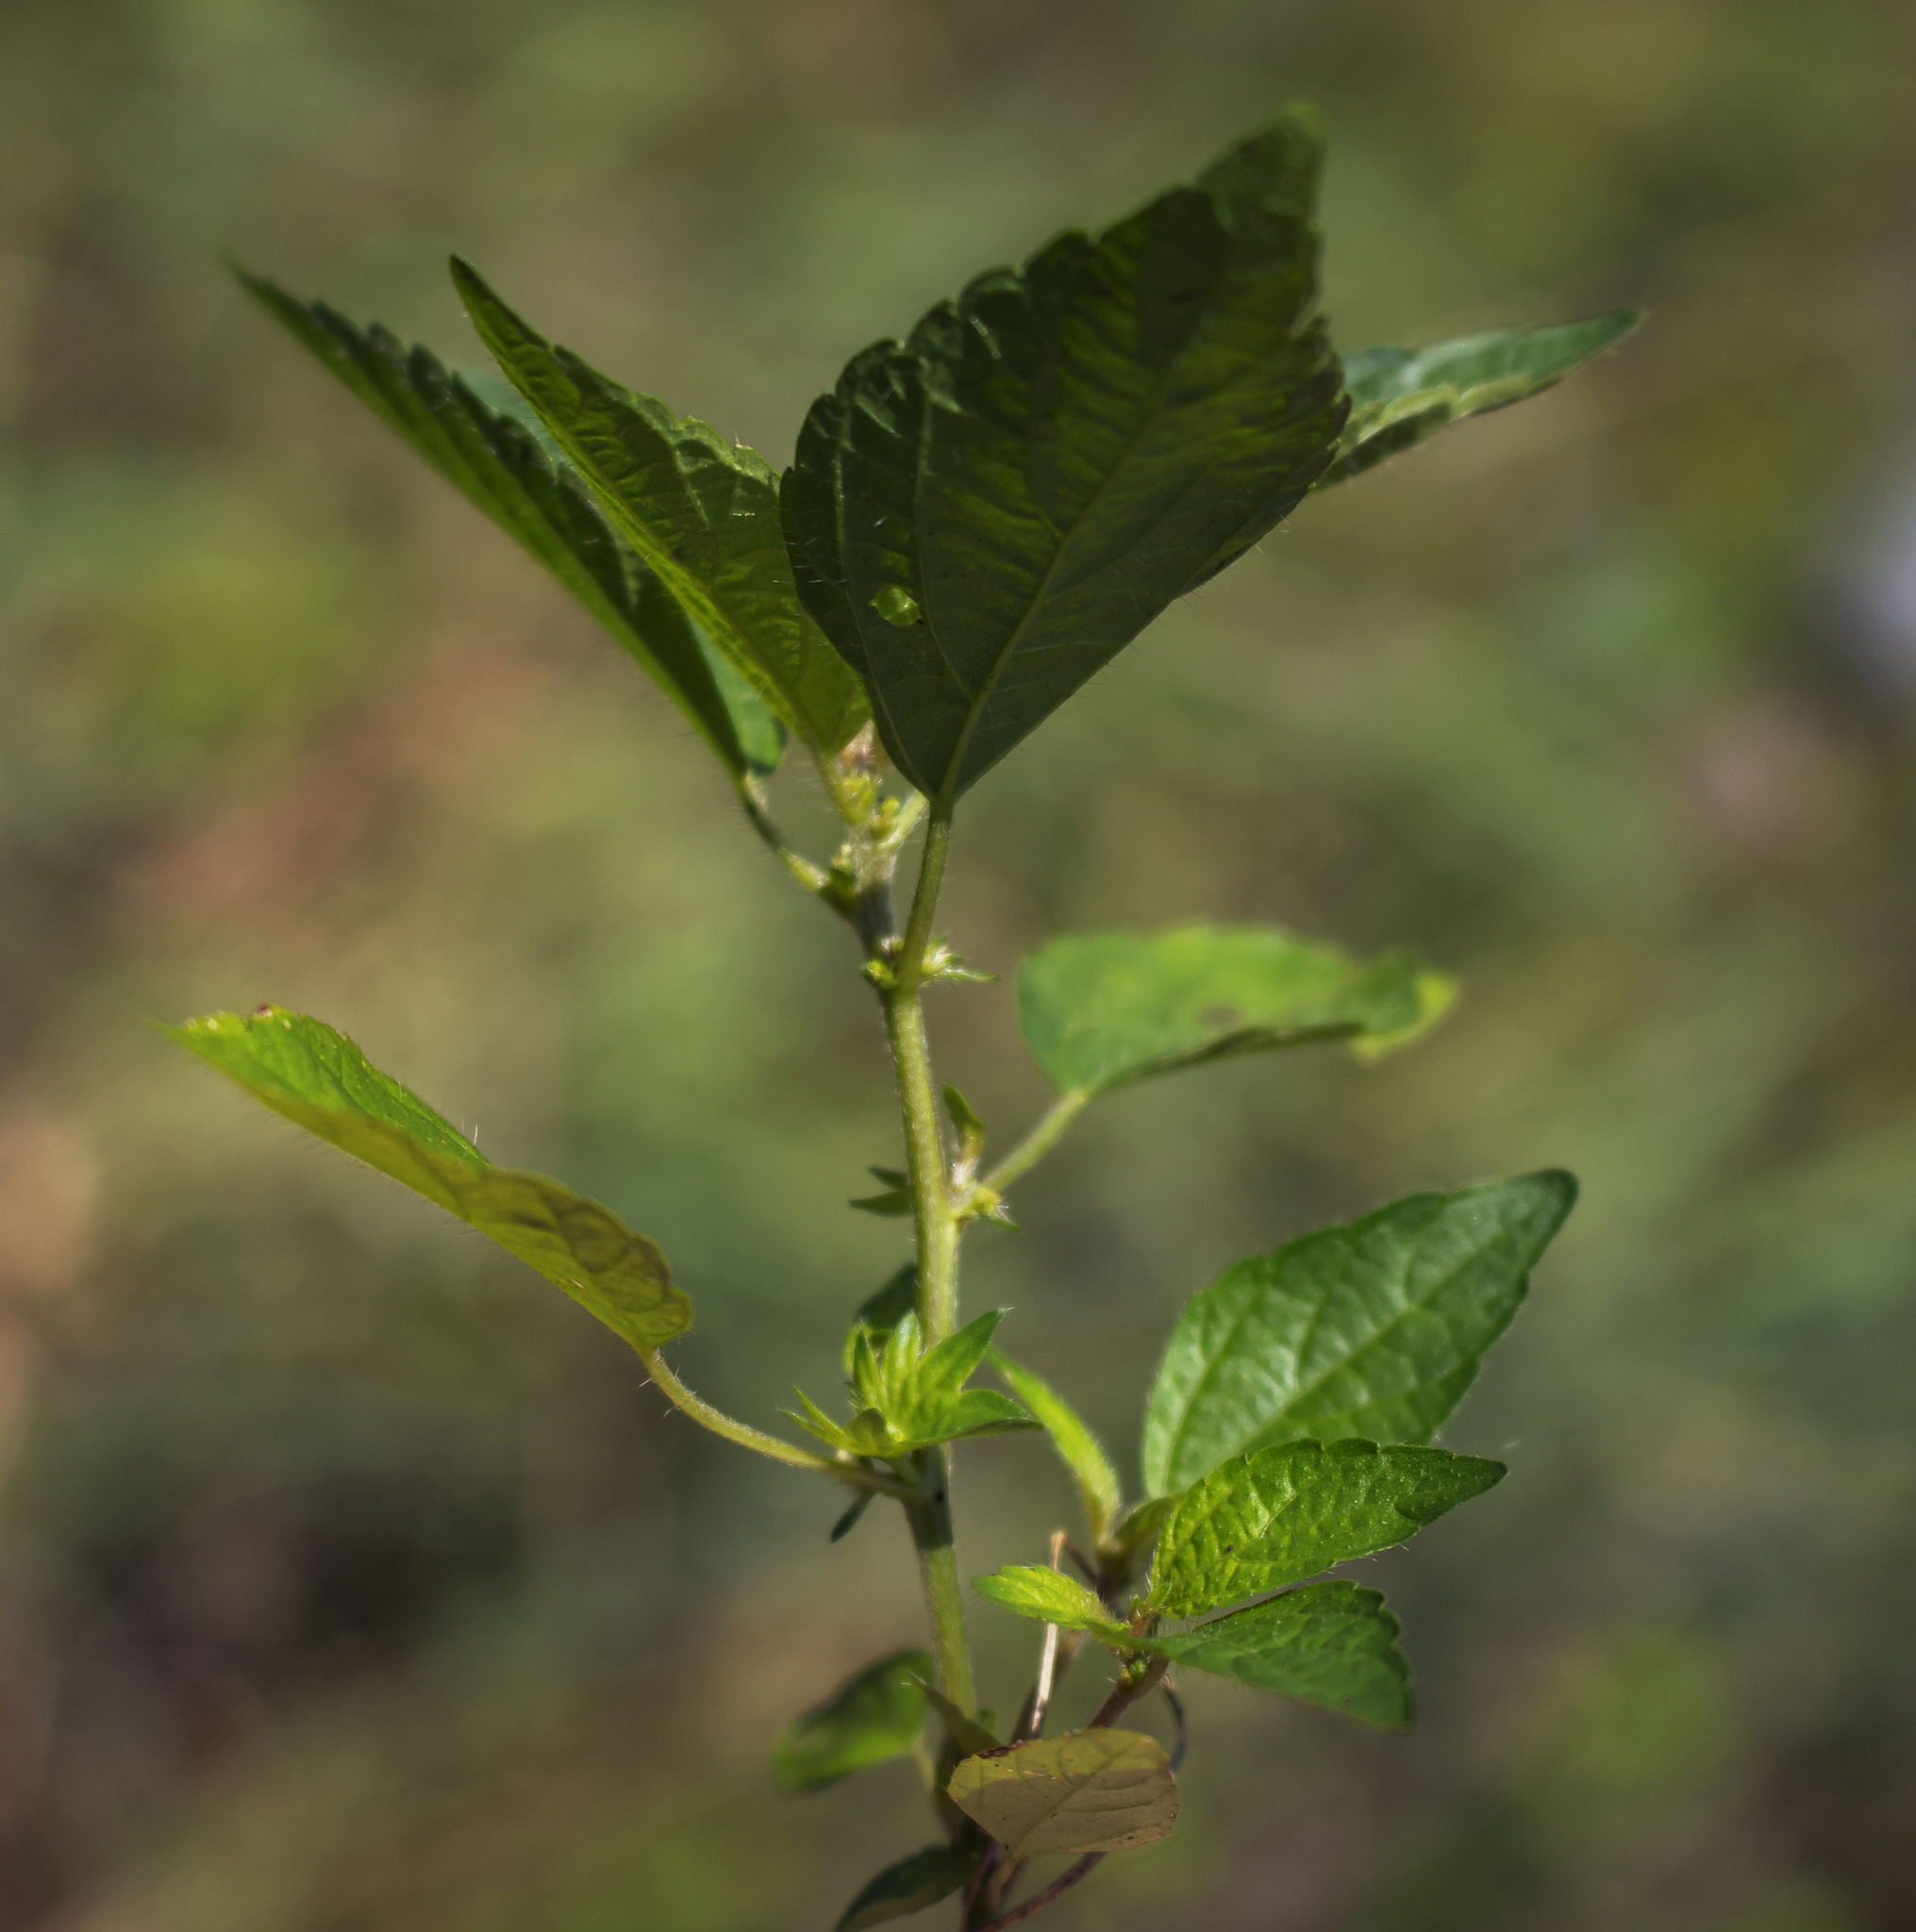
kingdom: Plantae
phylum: Tracheophyta
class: Magnoliopsida
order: Malpighiales
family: Euphorbiaceae
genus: Acalypha
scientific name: Acalypha rhomboidea
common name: Rhombic copperleaf
